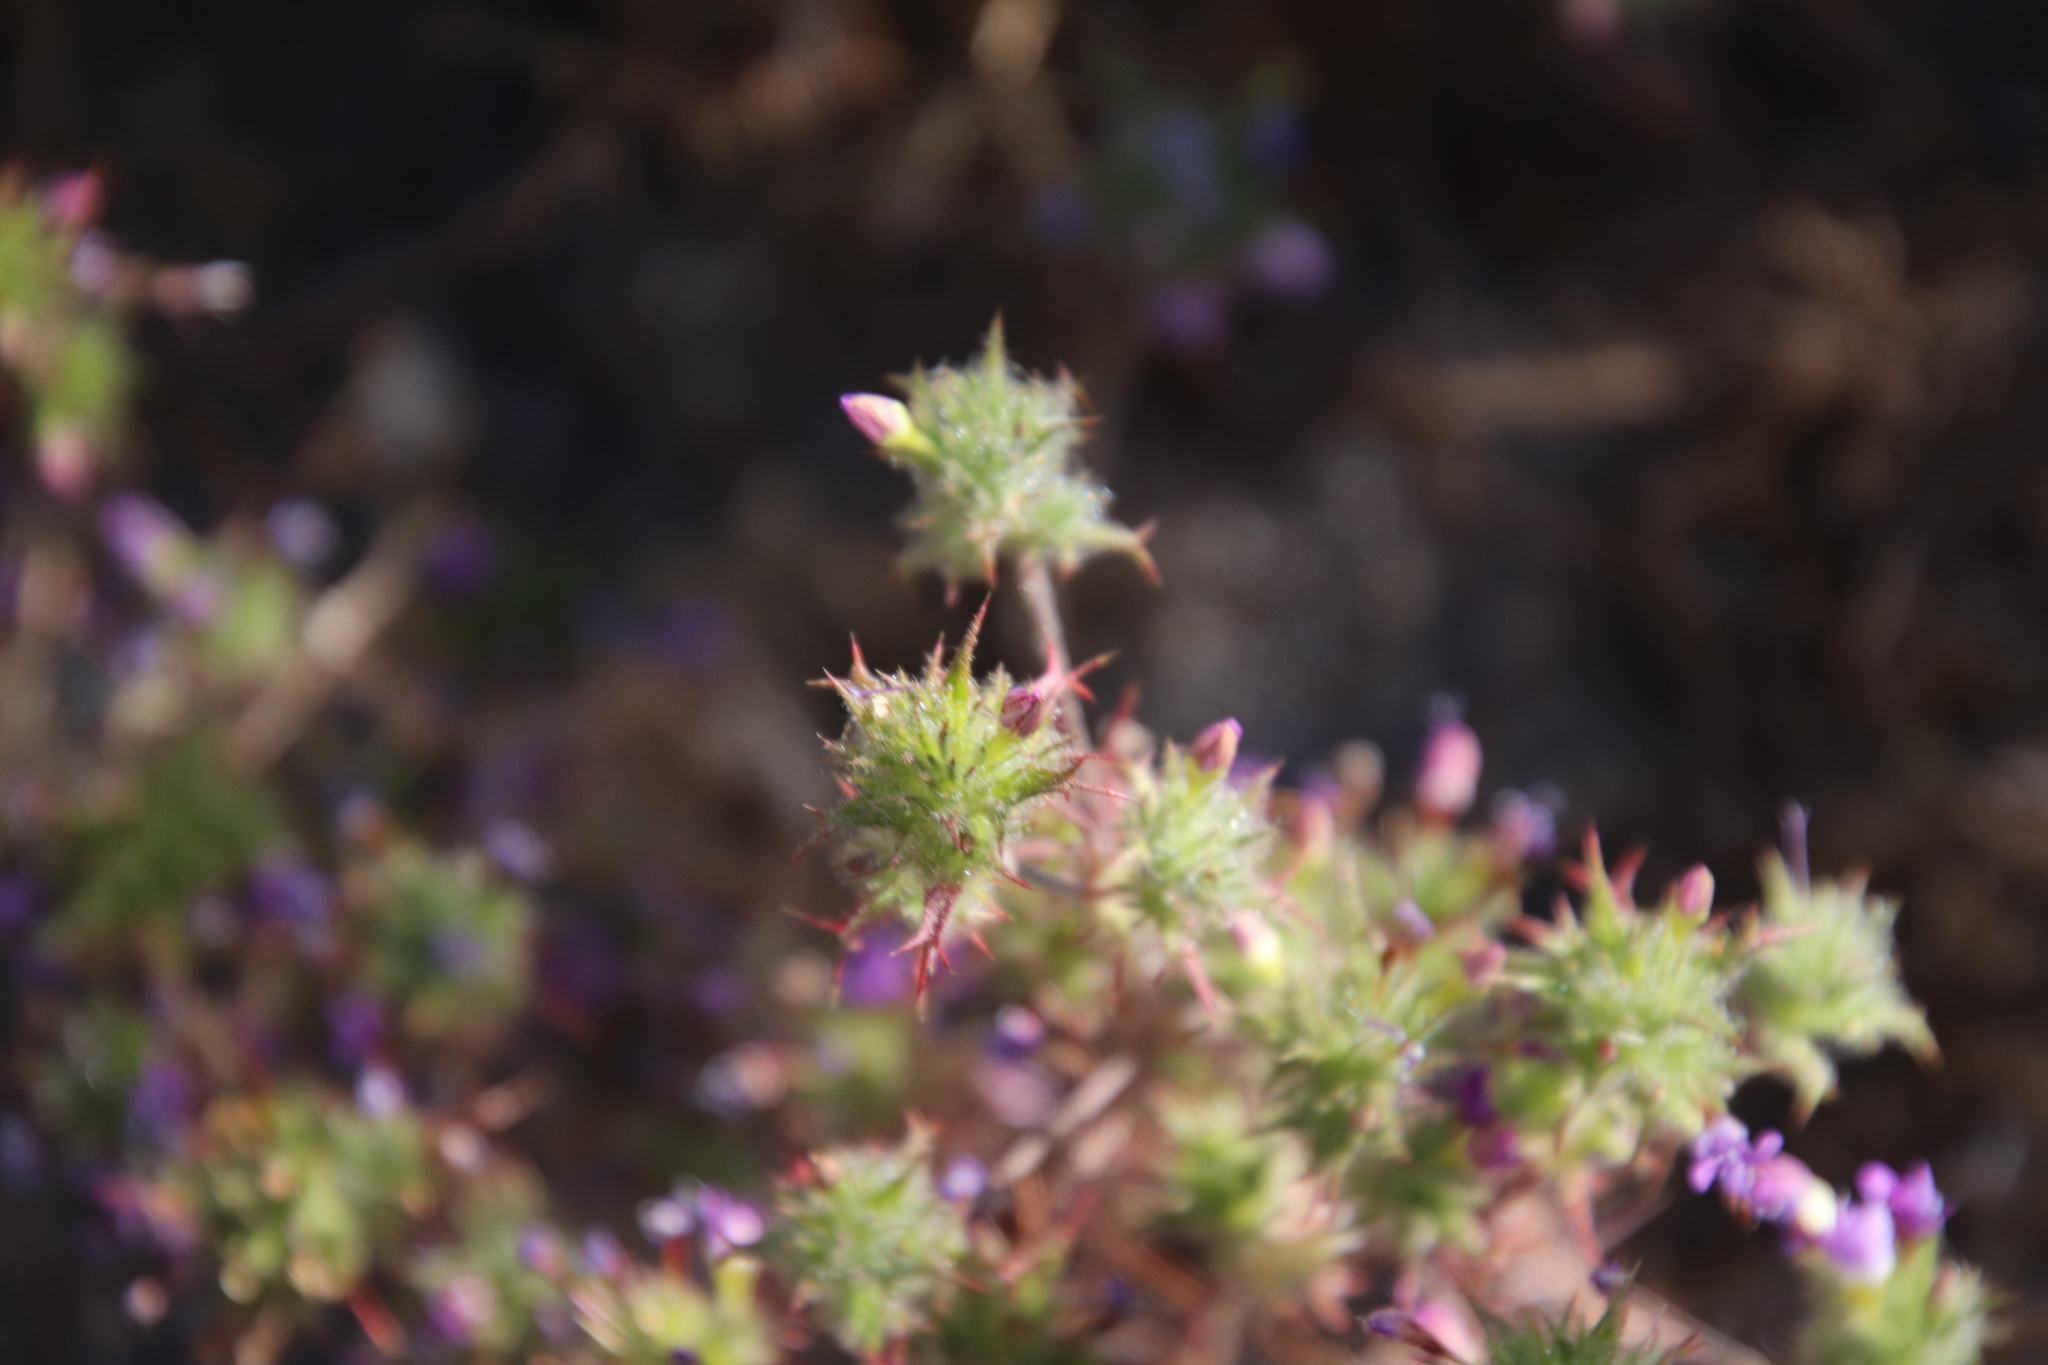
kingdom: Plantae
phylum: Tracheophyta
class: Magnoliopsida
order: Ericales
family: Polemoniaceae
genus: Navarretia
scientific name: Navarretia hamata
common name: Hooked navarretia
